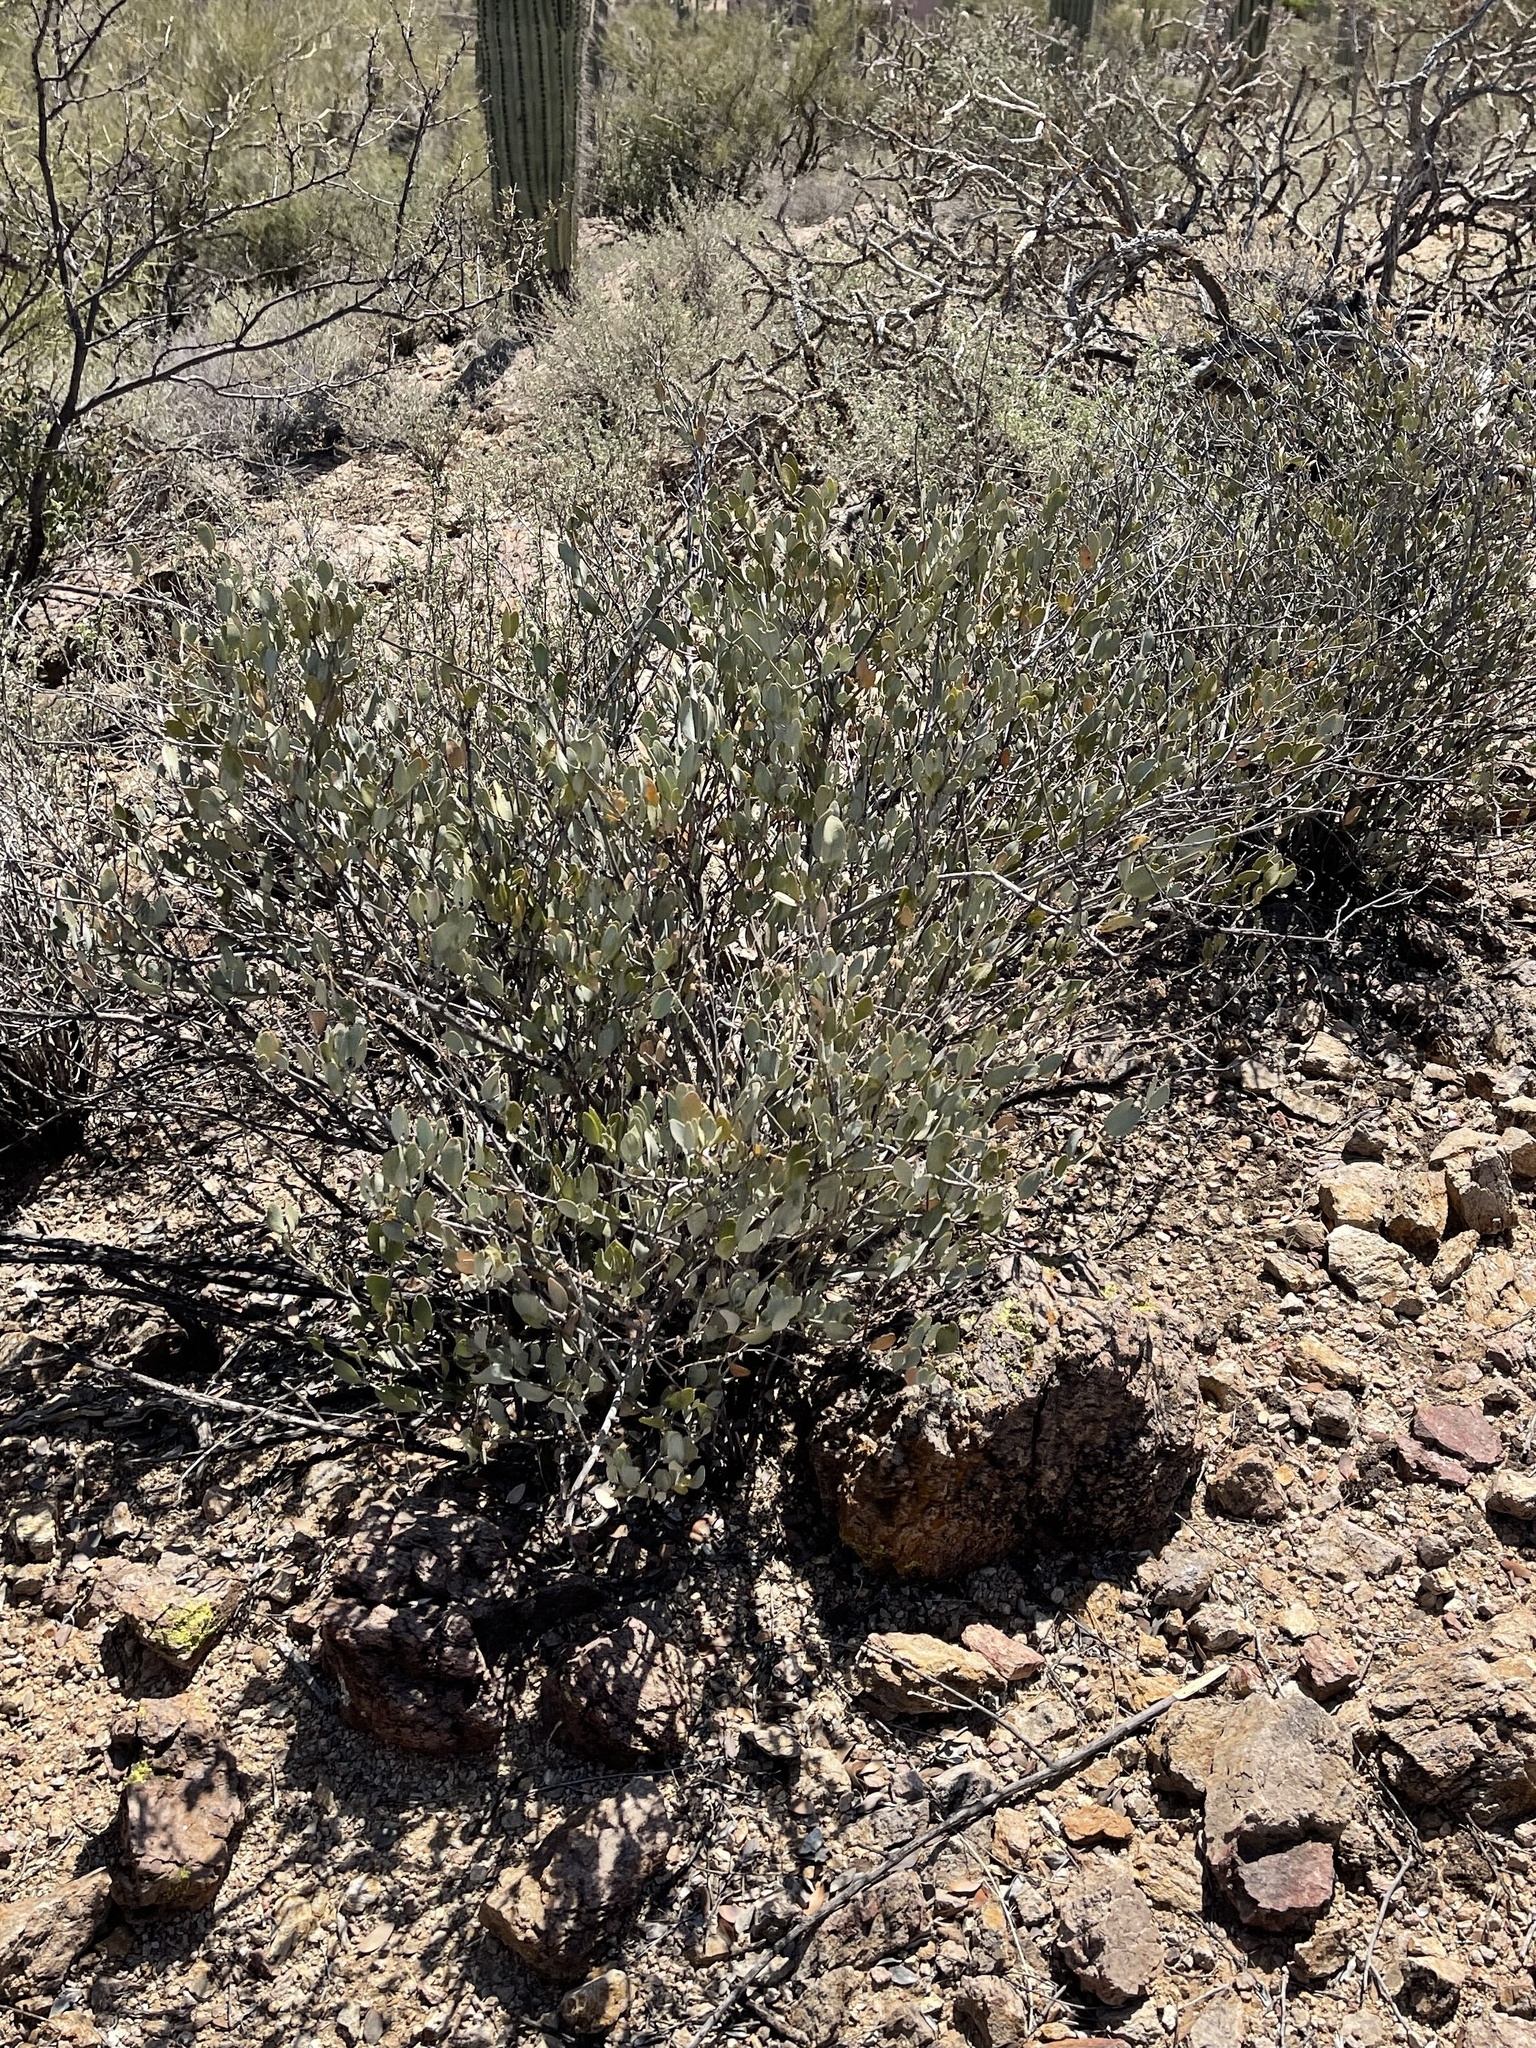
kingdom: Plantae
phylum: Tracheophyta
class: Magnoliopsida
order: Caryophyllales
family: Simmondsiaceae
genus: Simmondsia
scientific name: Simmondsia chinensis
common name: Jojoba
